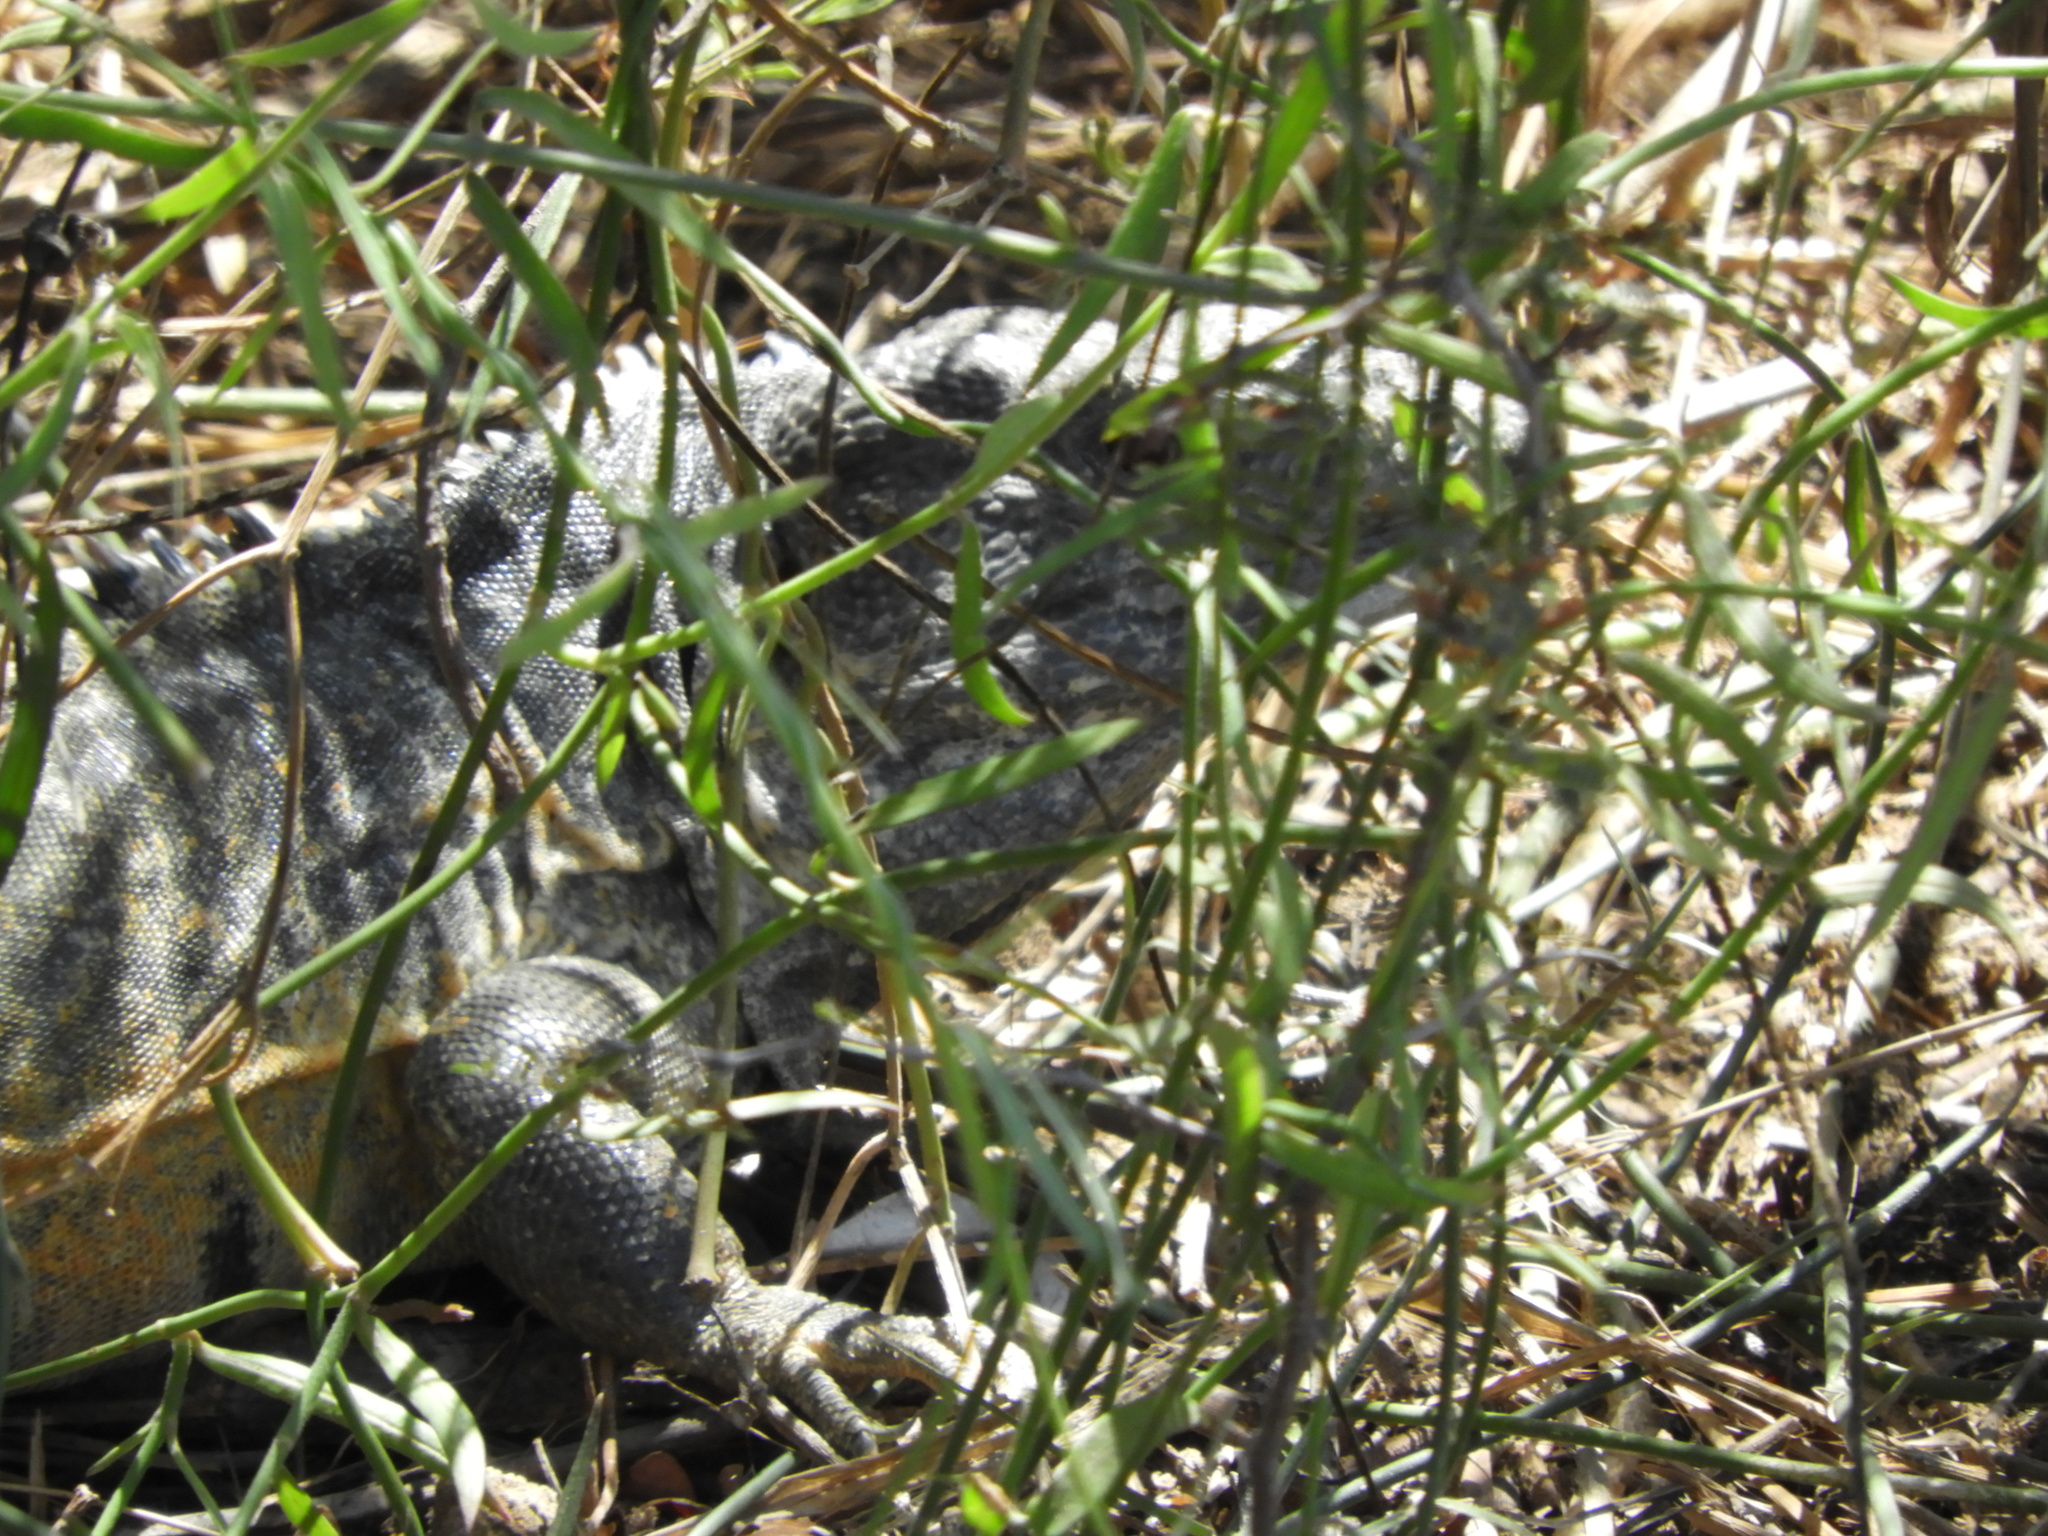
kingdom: Animalia
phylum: Chordata
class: Squamata
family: Iguanidae
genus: Ctenosaura
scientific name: Ctenosaura pectinata
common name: Guerreran spiny-tailed iguana
